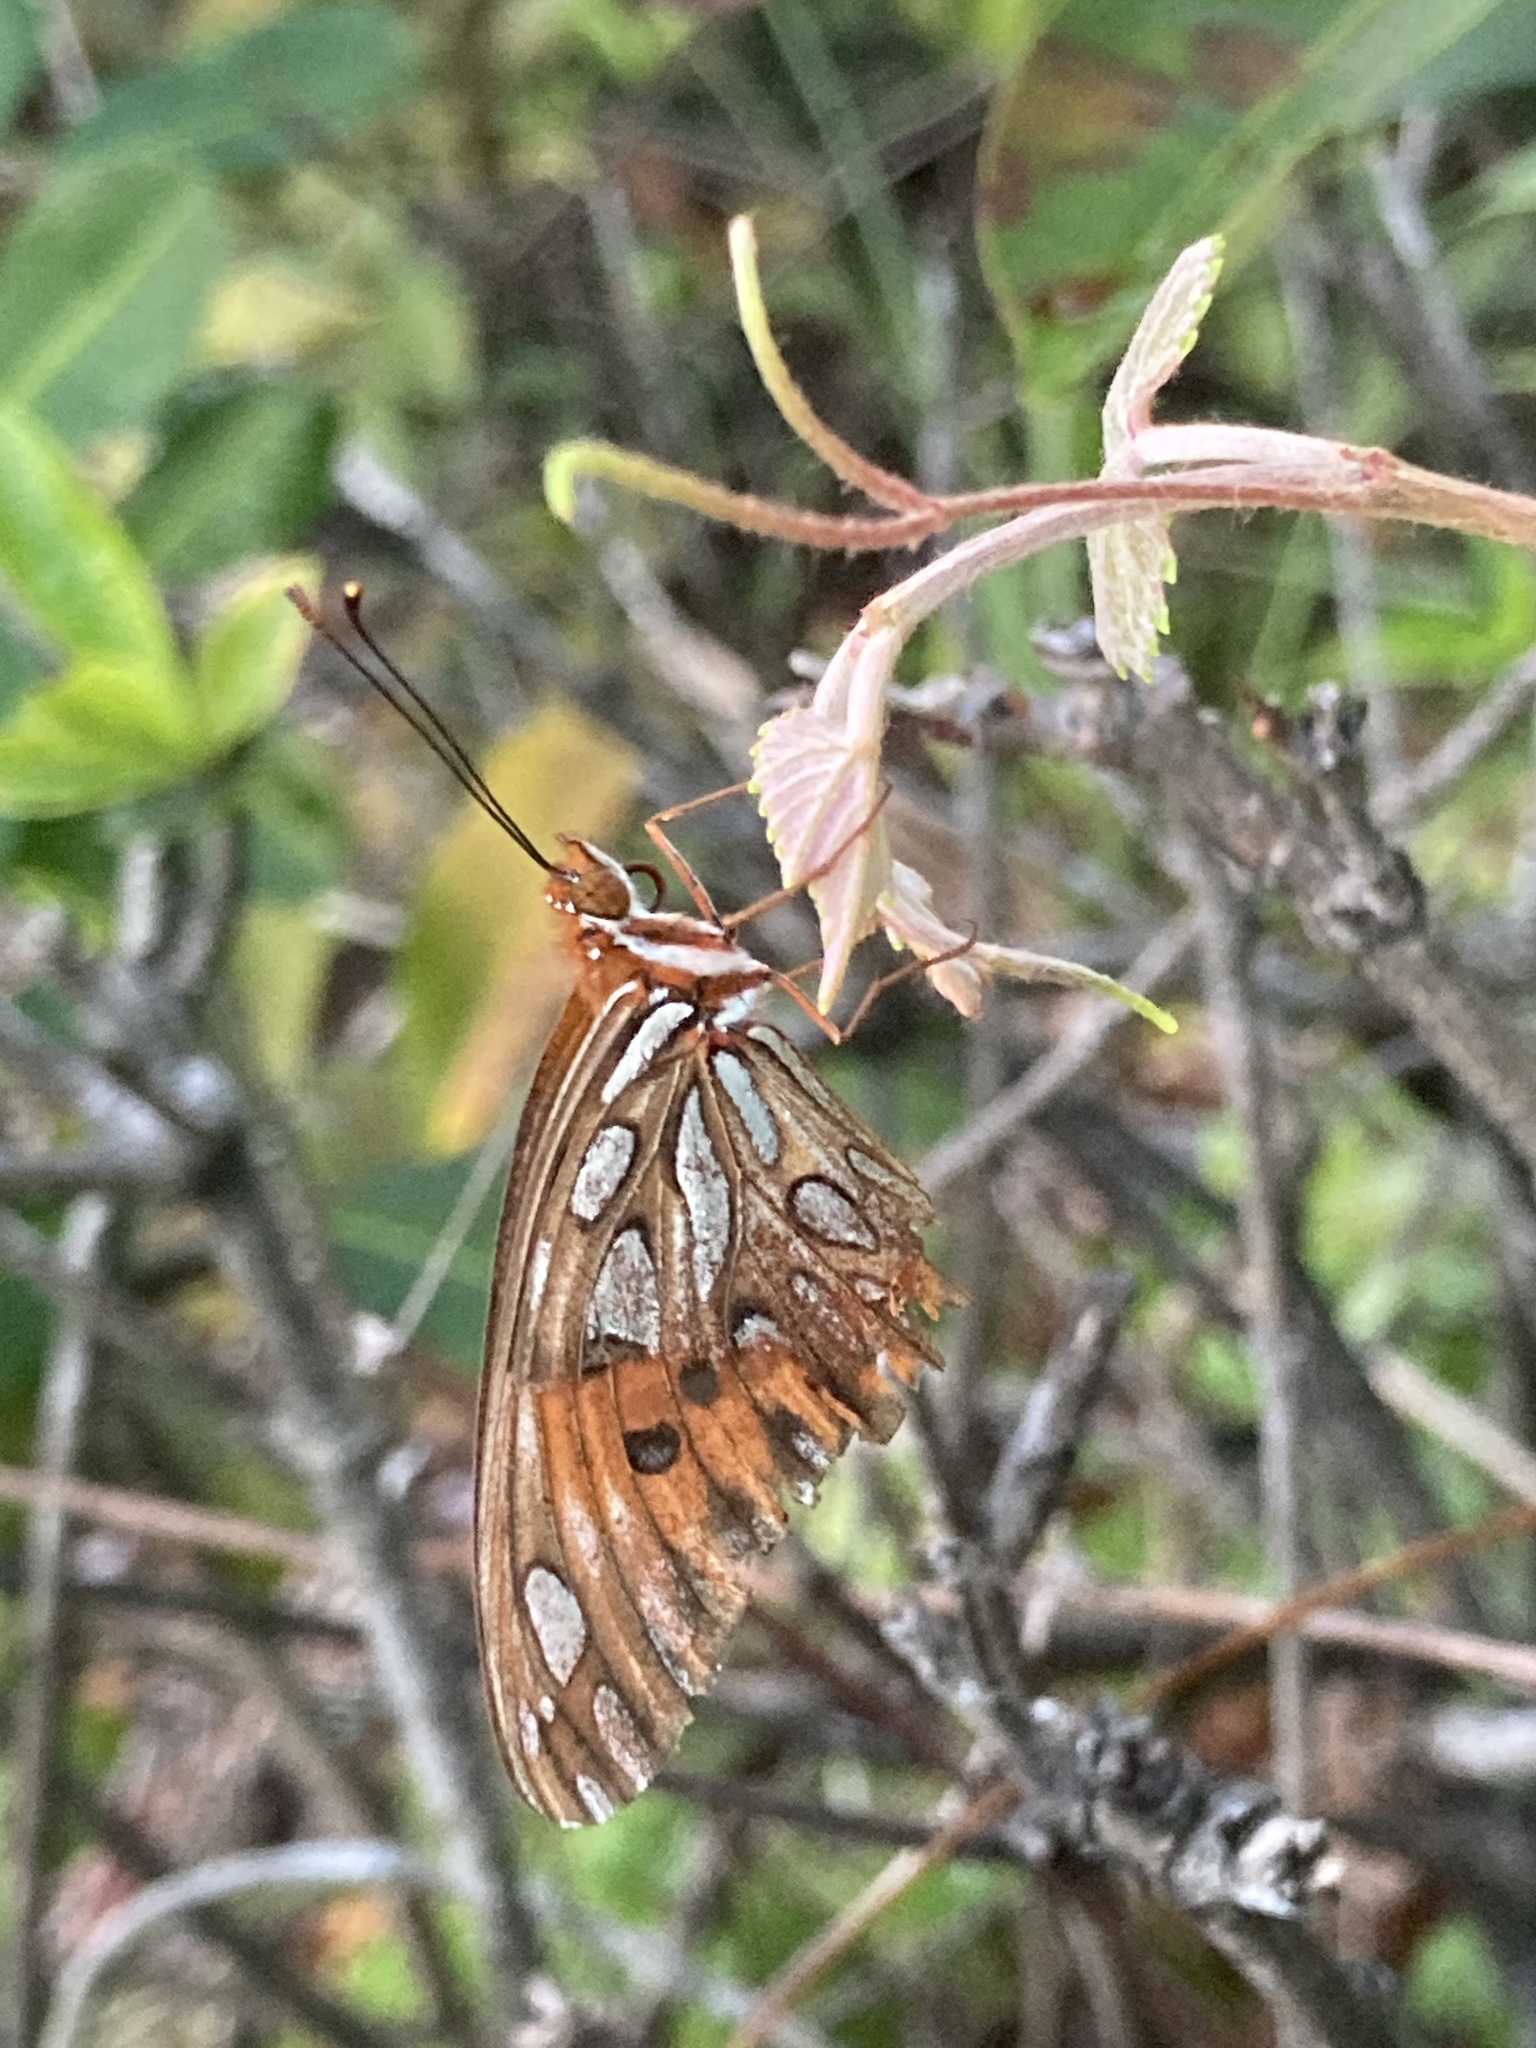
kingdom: Animalia
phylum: Arthropoda
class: Insecta
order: Lepidoptera
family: Nymphalidae
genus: Dione
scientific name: Dione vanillae
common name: Gulf fritillary
